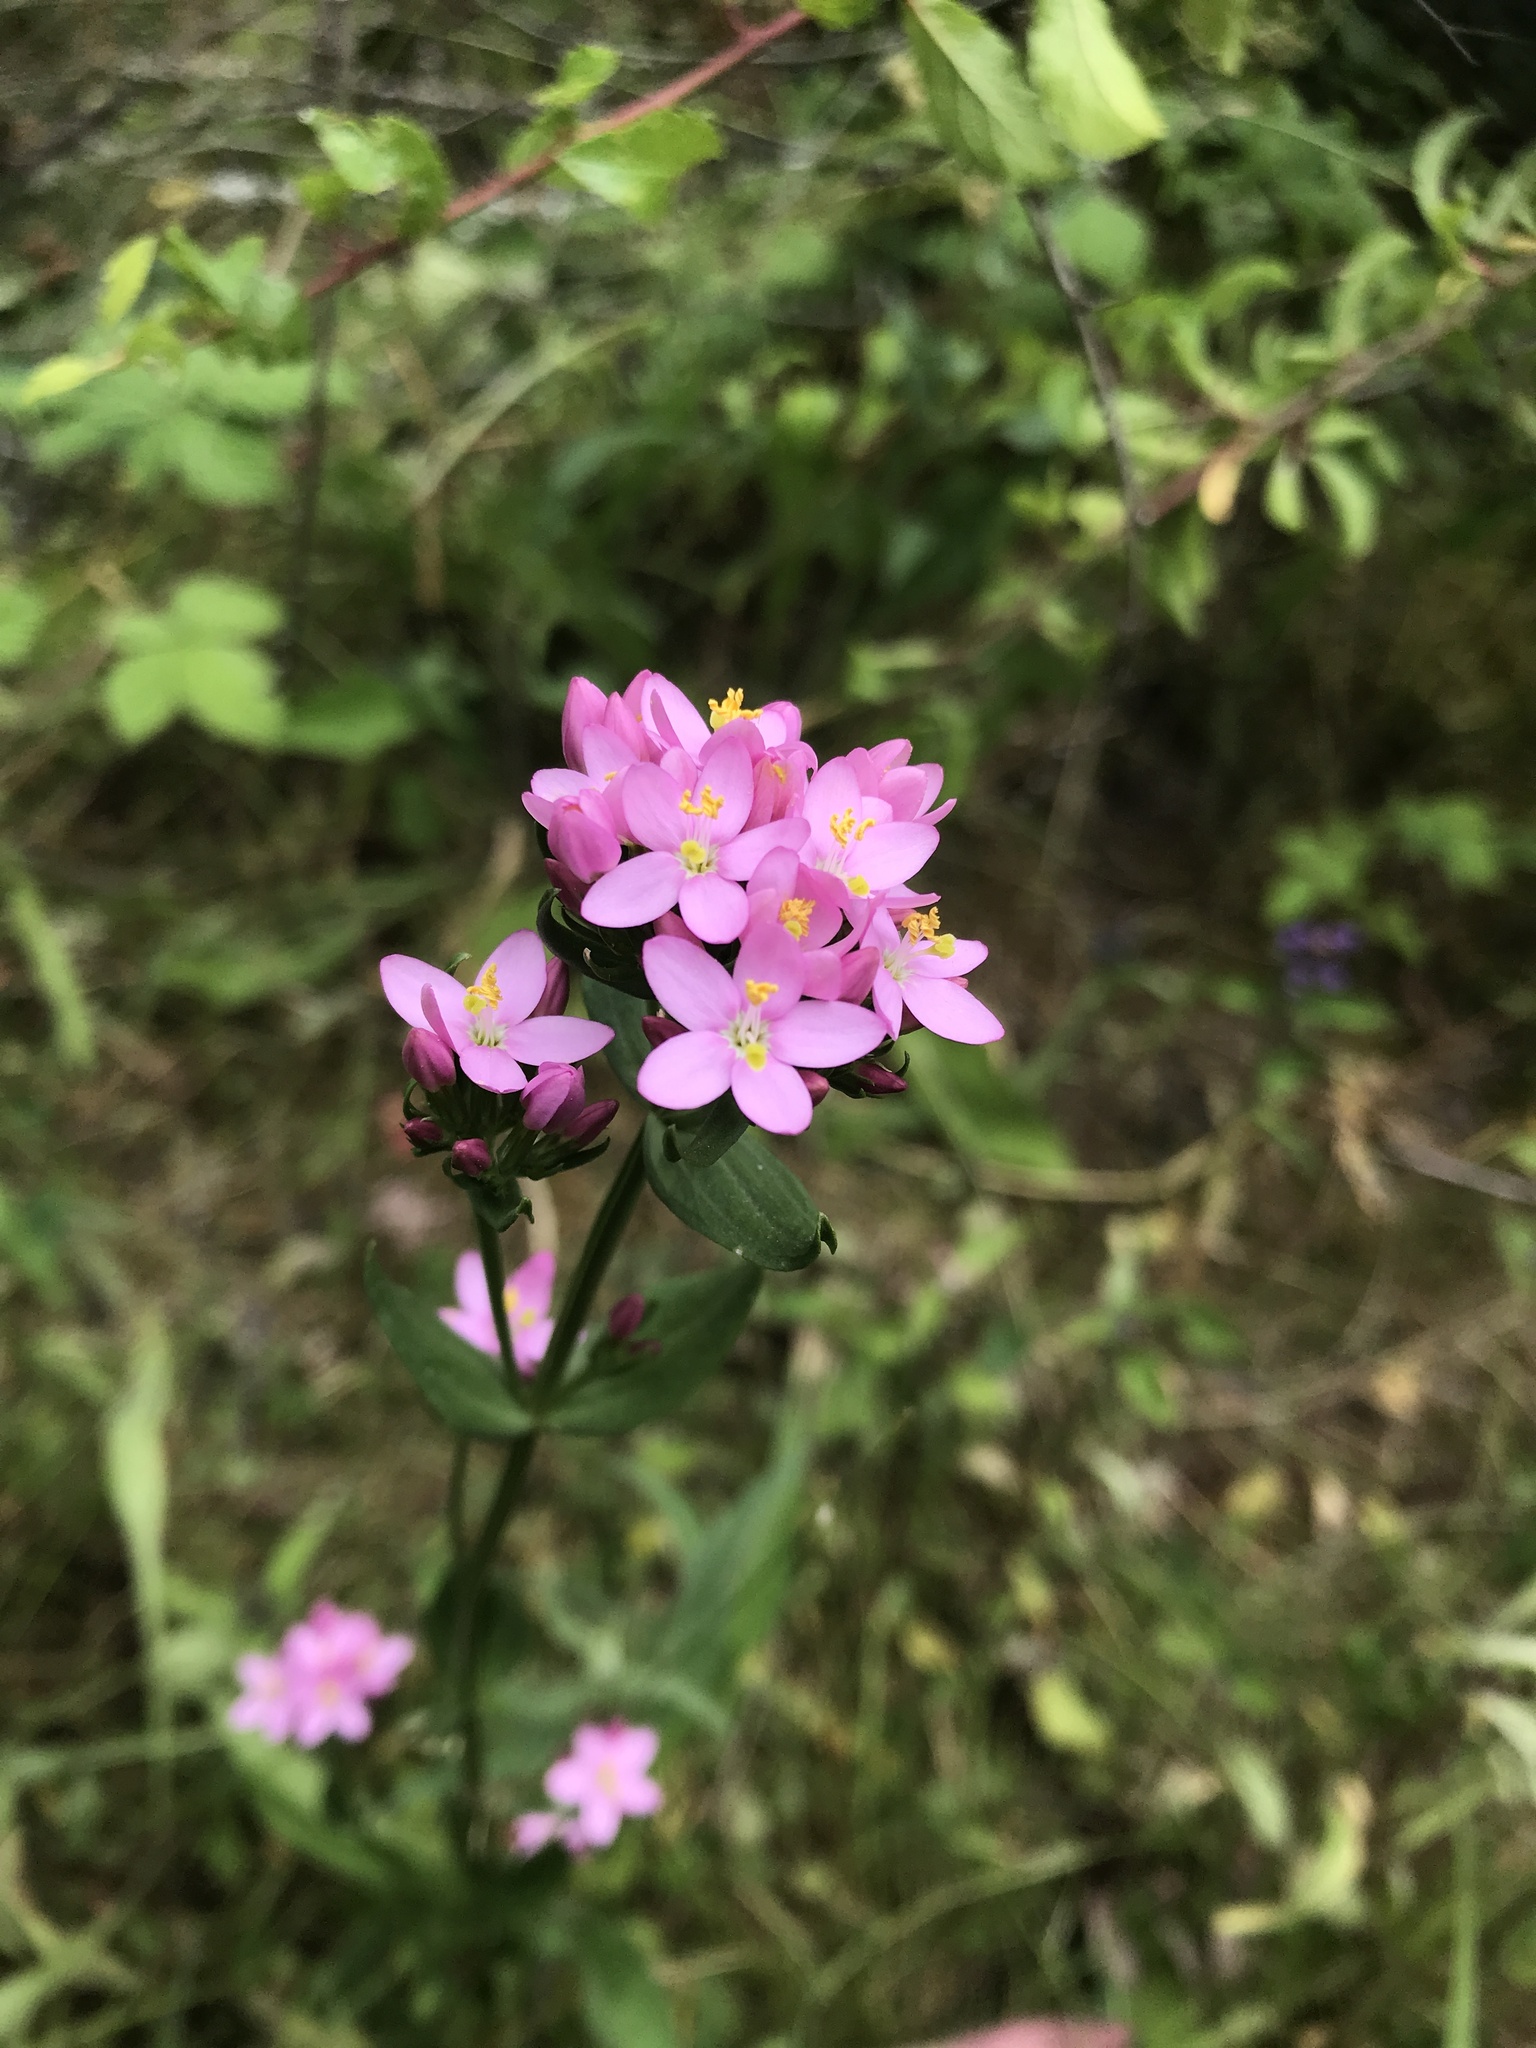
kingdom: Plantae
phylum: Tracheophyta
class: Magnoliopsida
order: Gentianales
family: Gentianaceae
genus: Centaurium
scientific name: Centaurium erythraea
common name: Common centaury
